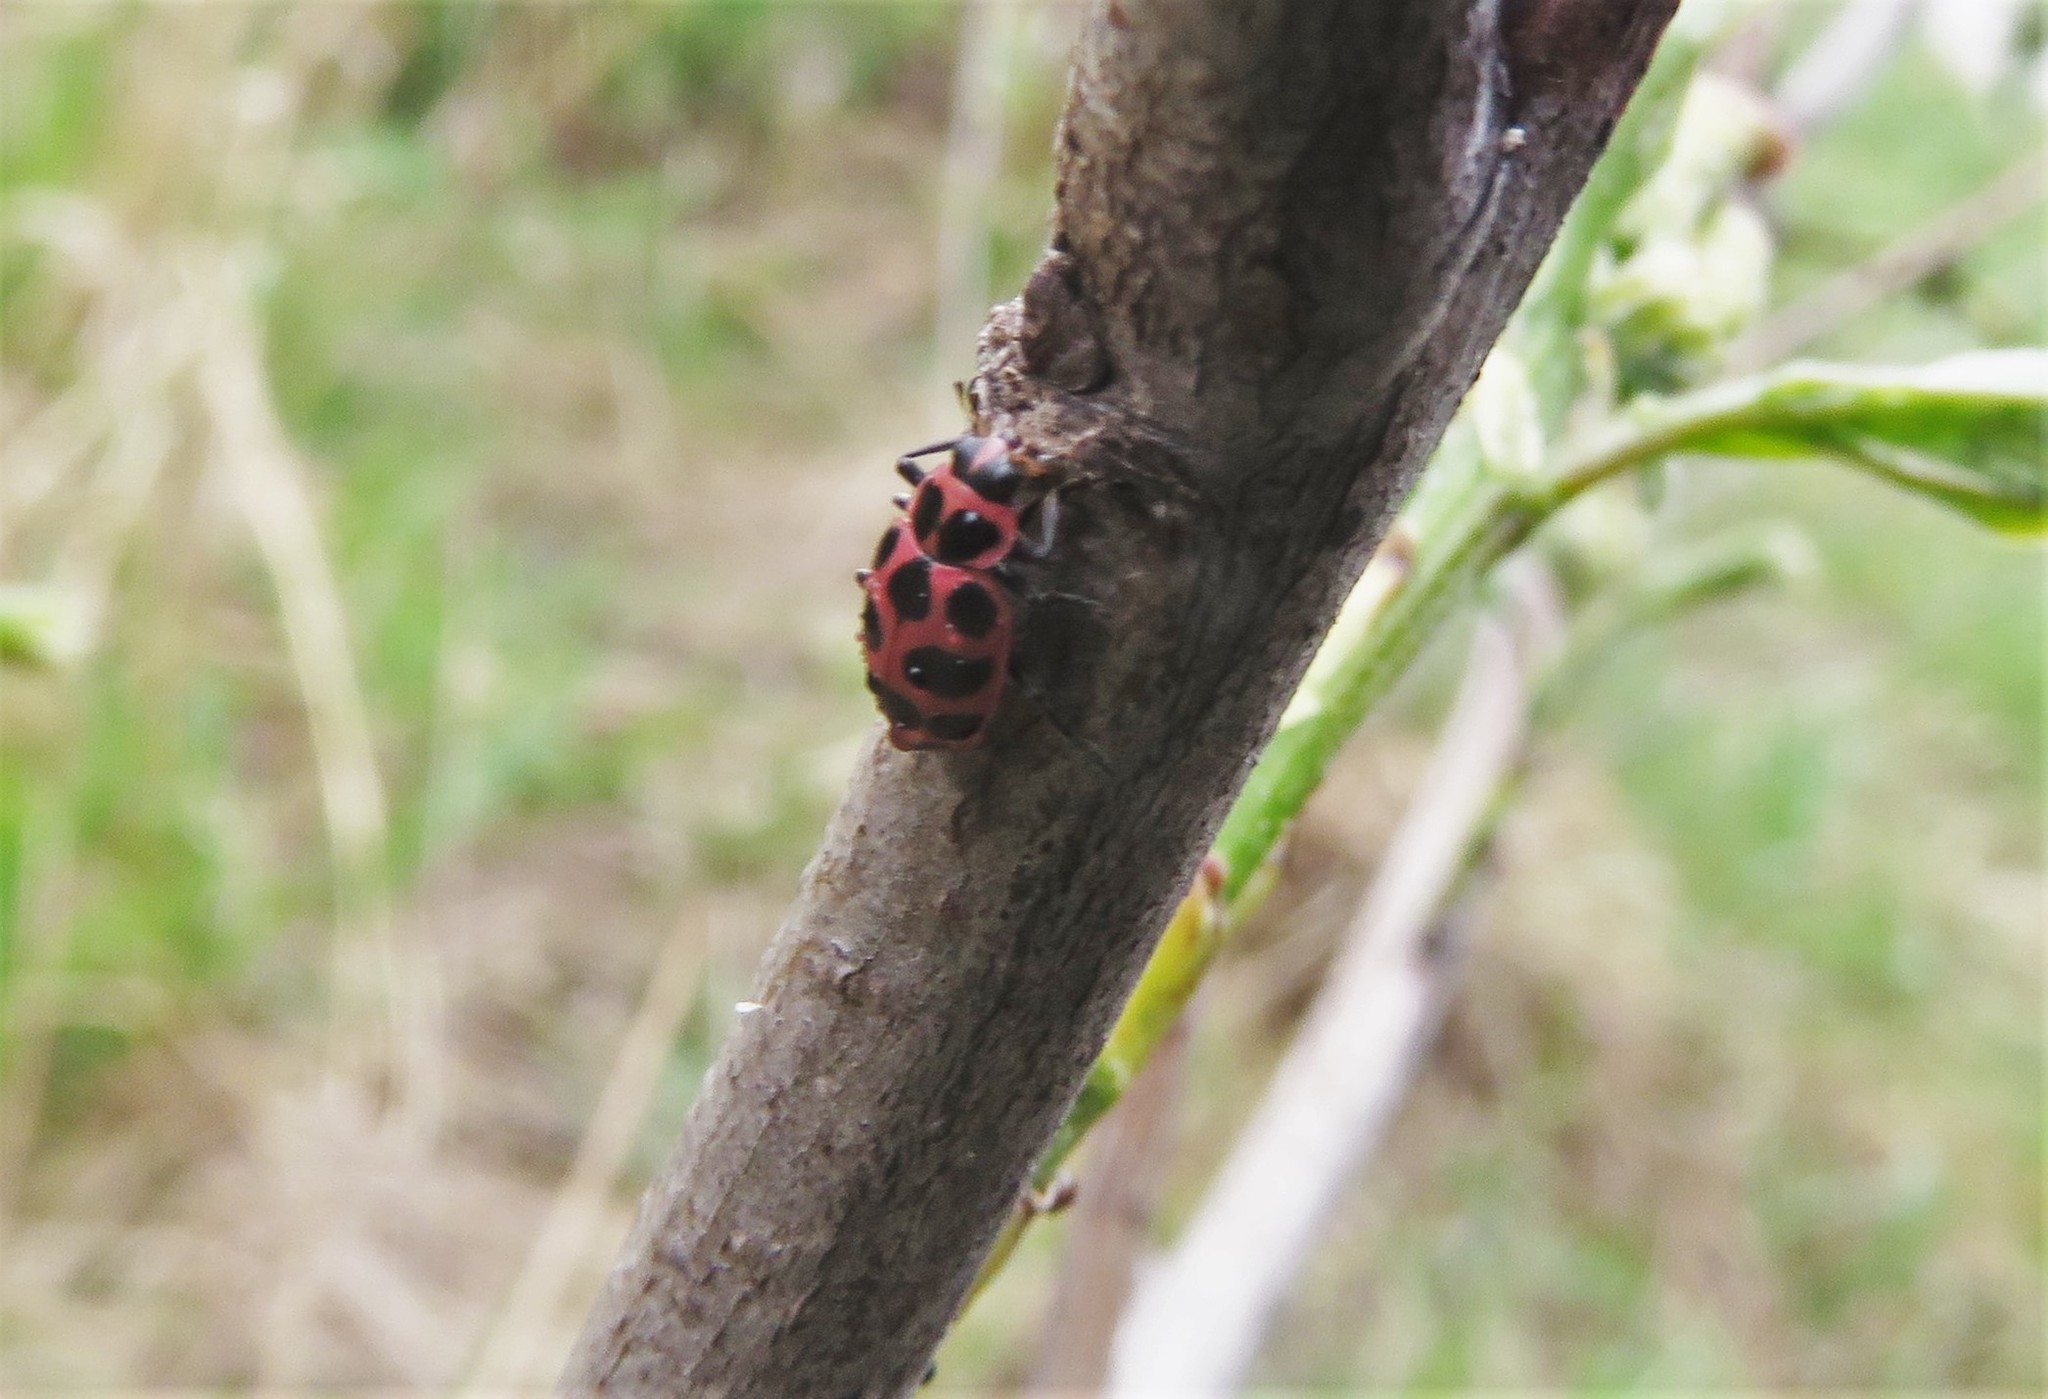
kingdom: Animalia
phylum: Arthropoda
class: Insecta
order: Coleoptera
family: Coccinellidae
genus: Coleomegilla
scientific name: Coleomegilla maculata
